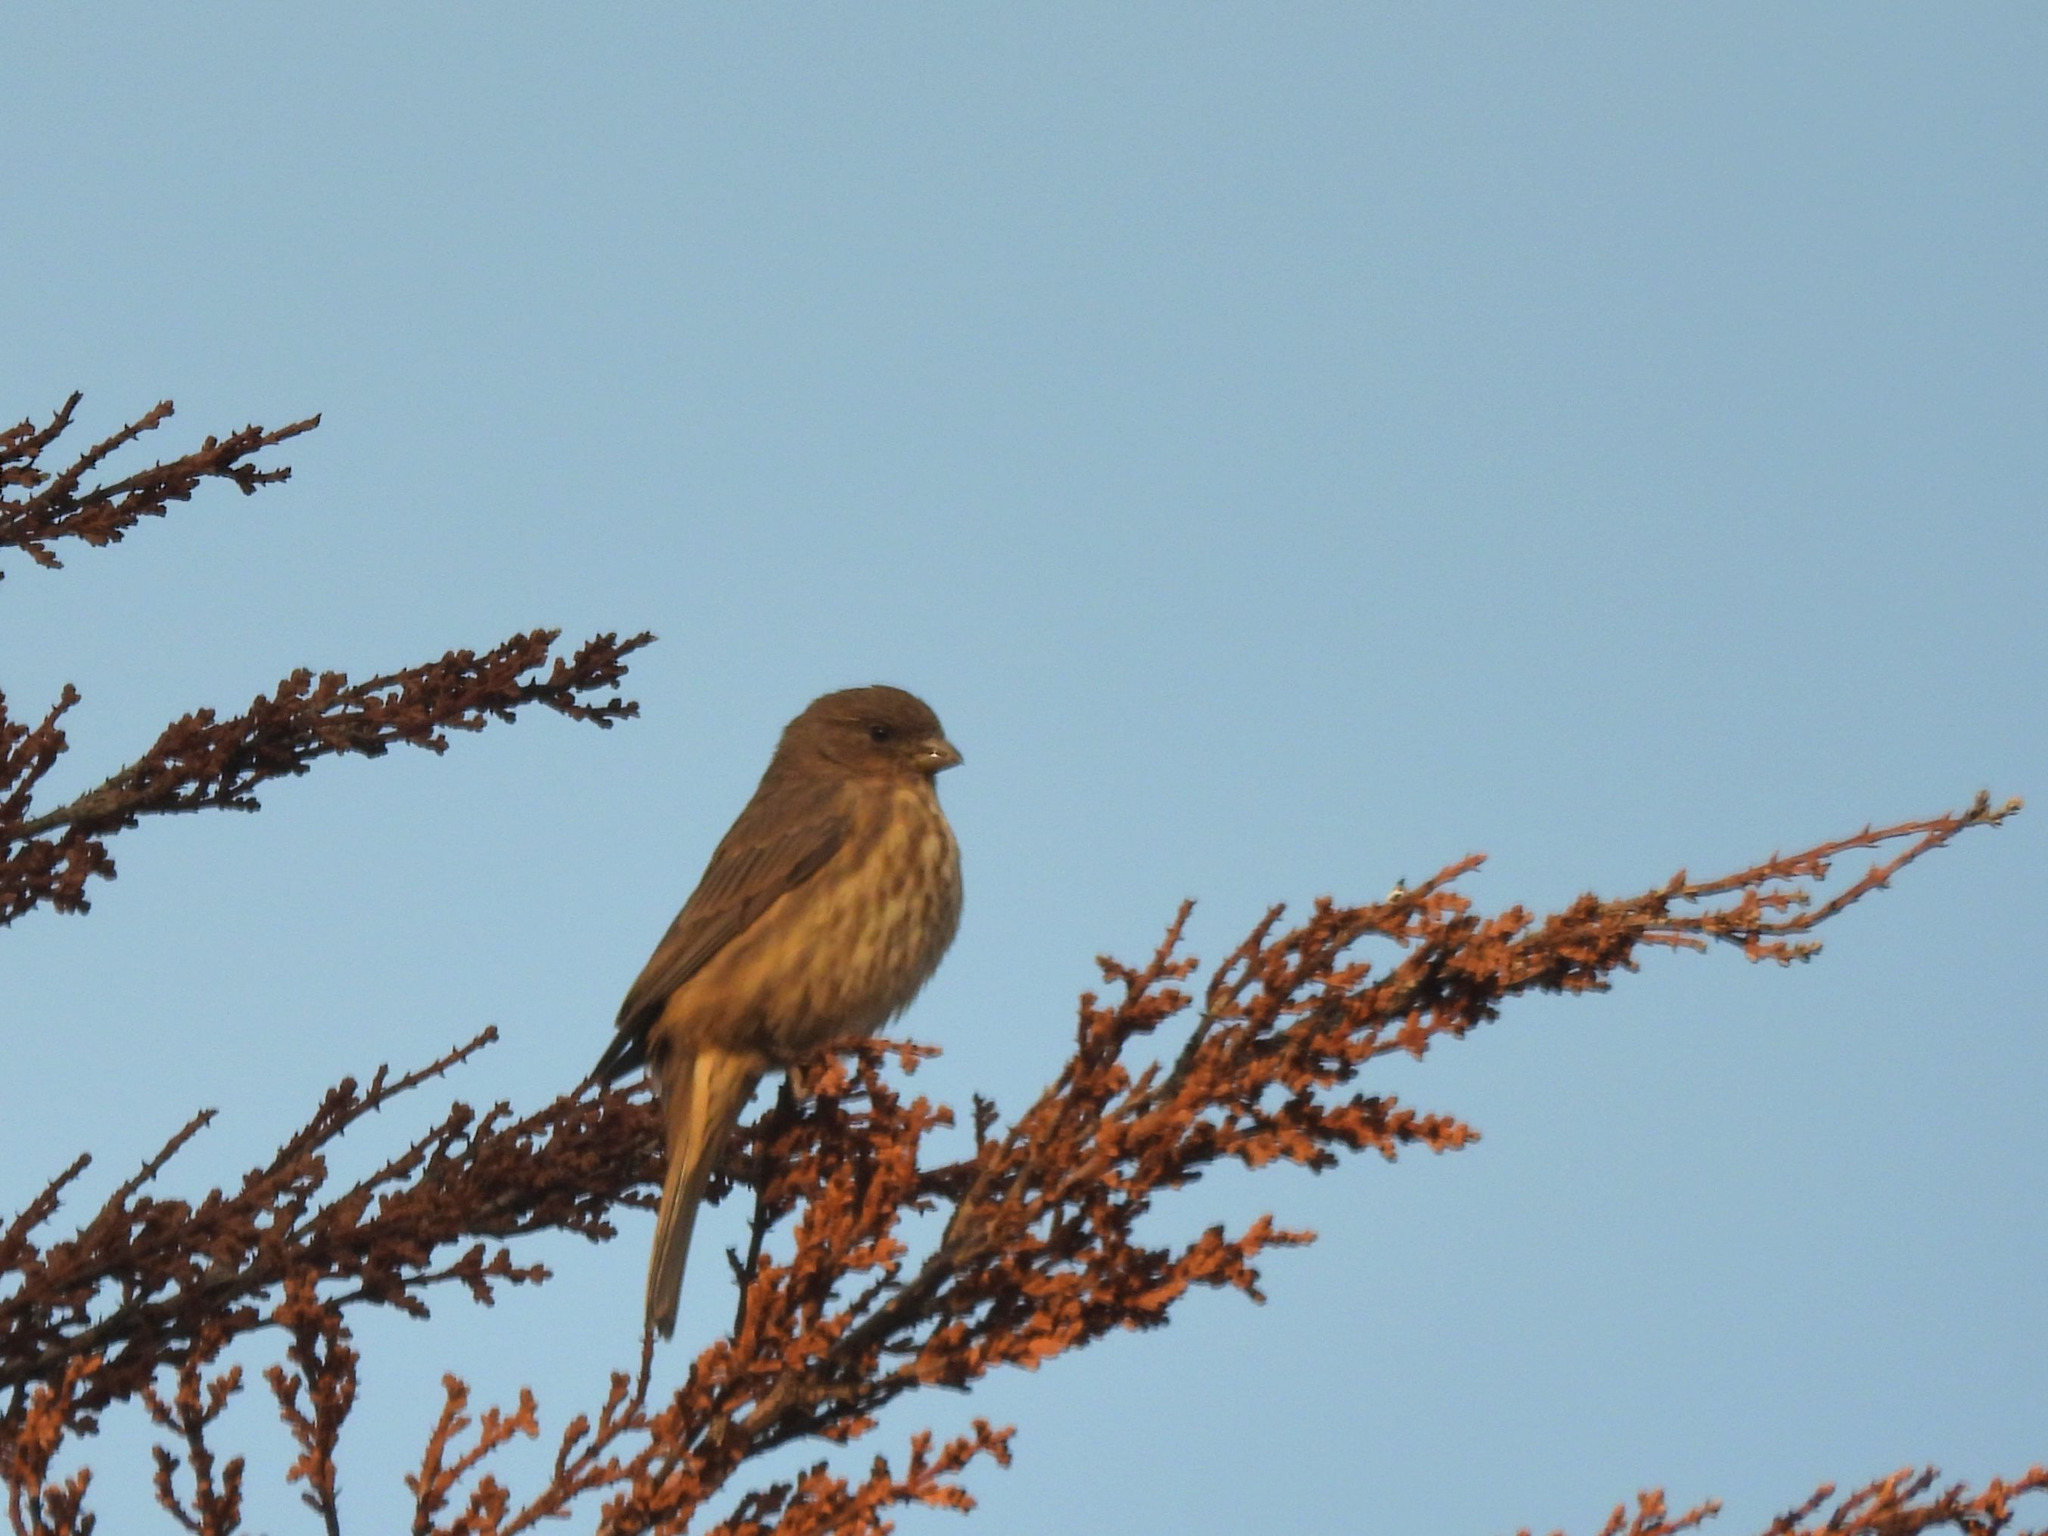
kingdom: Animalia
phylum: Chordata
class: Aves
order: Passeriformes
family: Fringillidae
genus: Haemorhous
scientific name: Haemorhous mexicanus
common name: House finch
